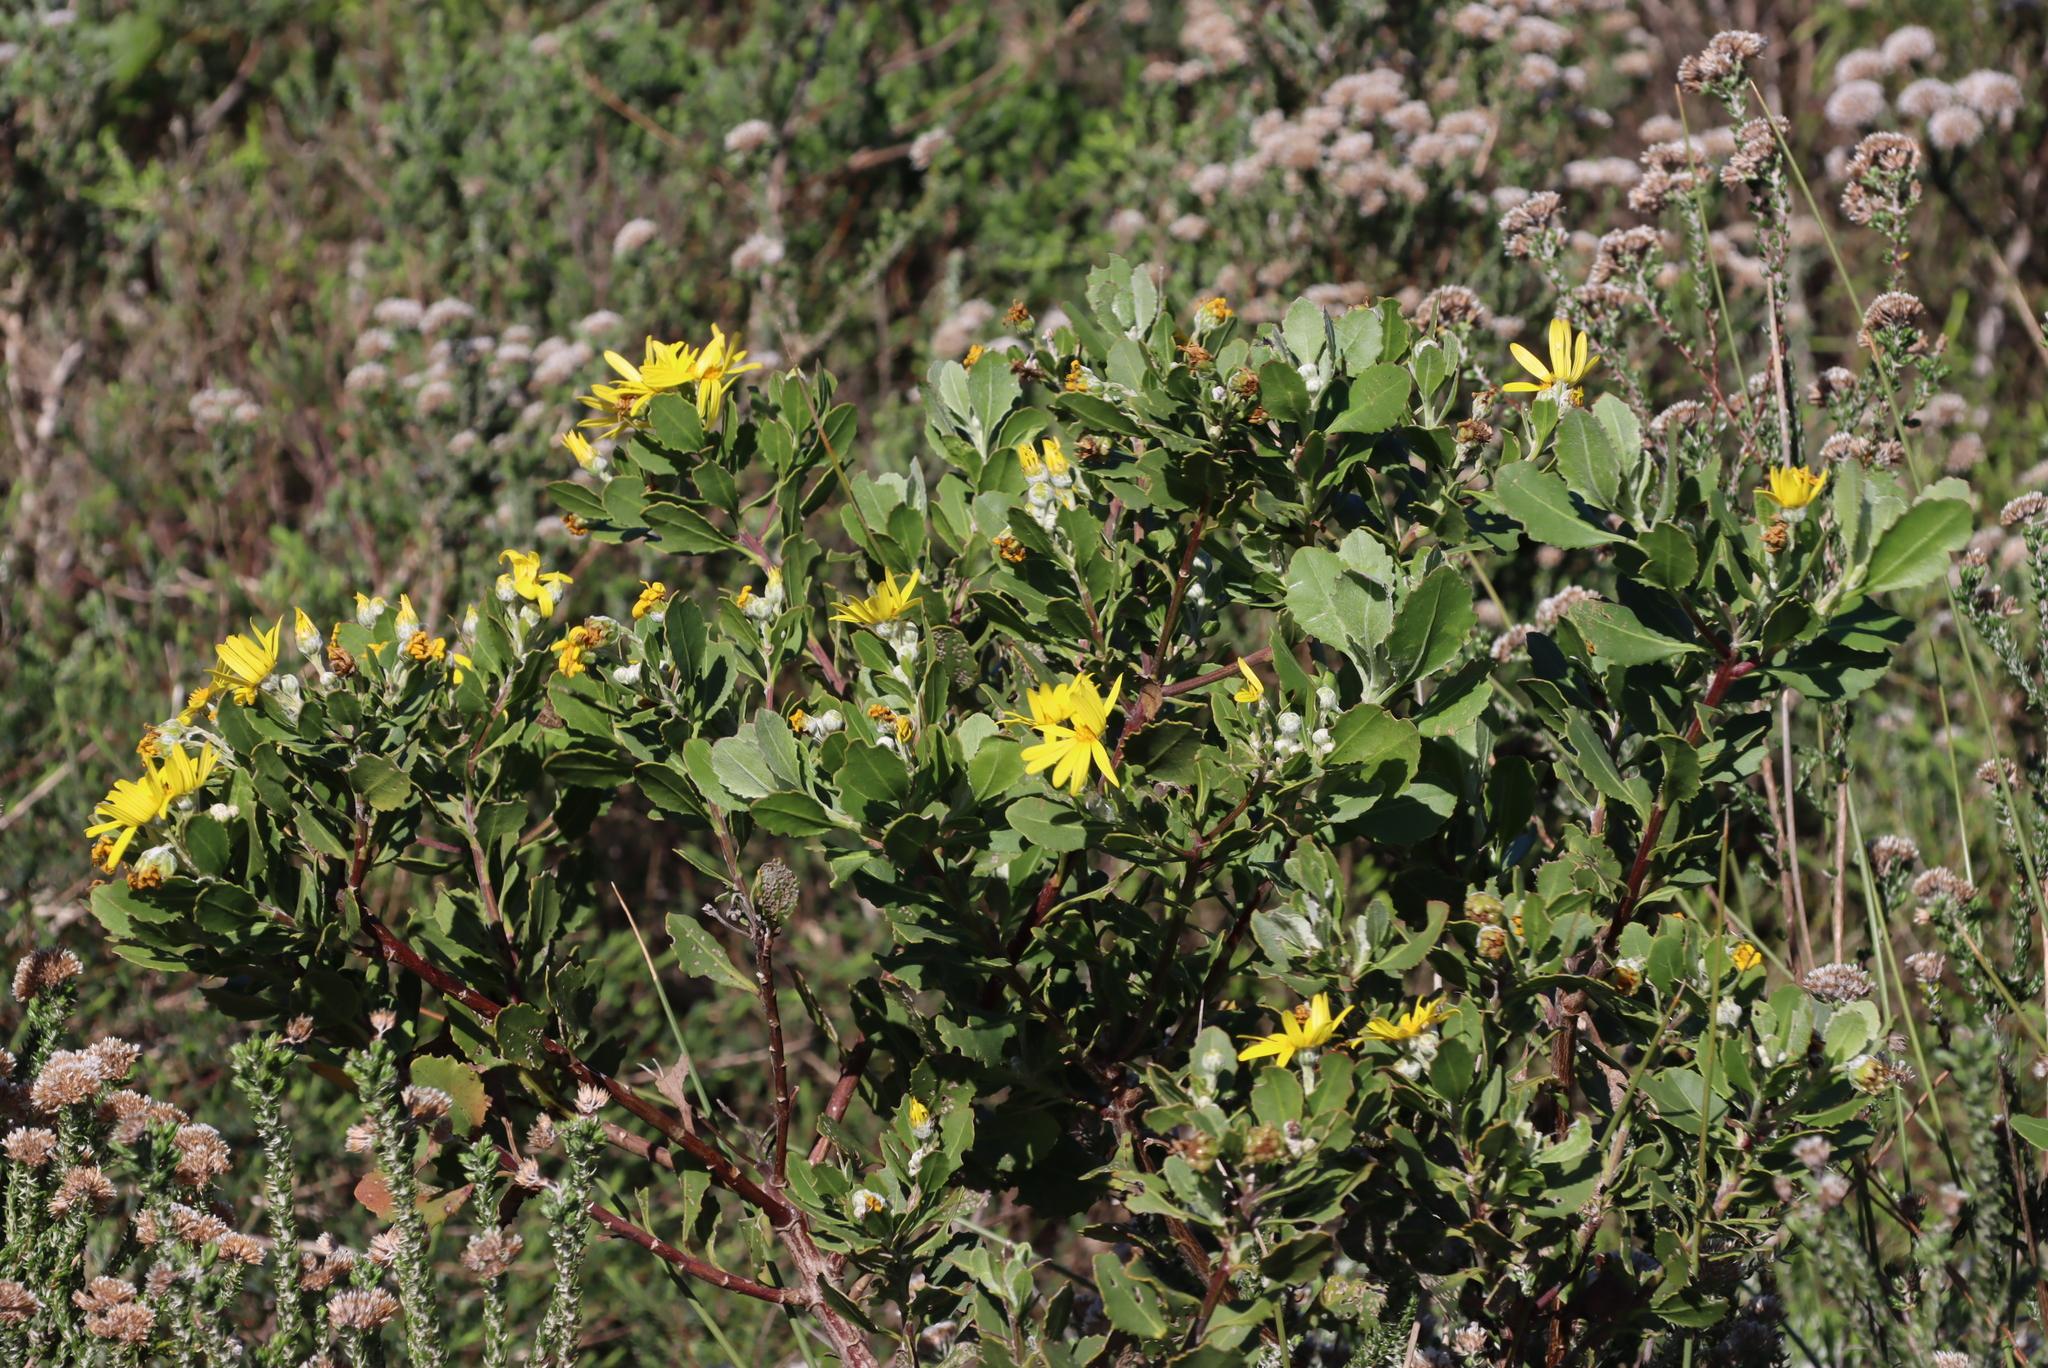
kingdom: Plantae
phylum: Tracheophyta
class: Magnoliopsida
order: Asterales
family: Asteraceae
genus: Osteospermum
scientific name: Osteospermum moniliferum
